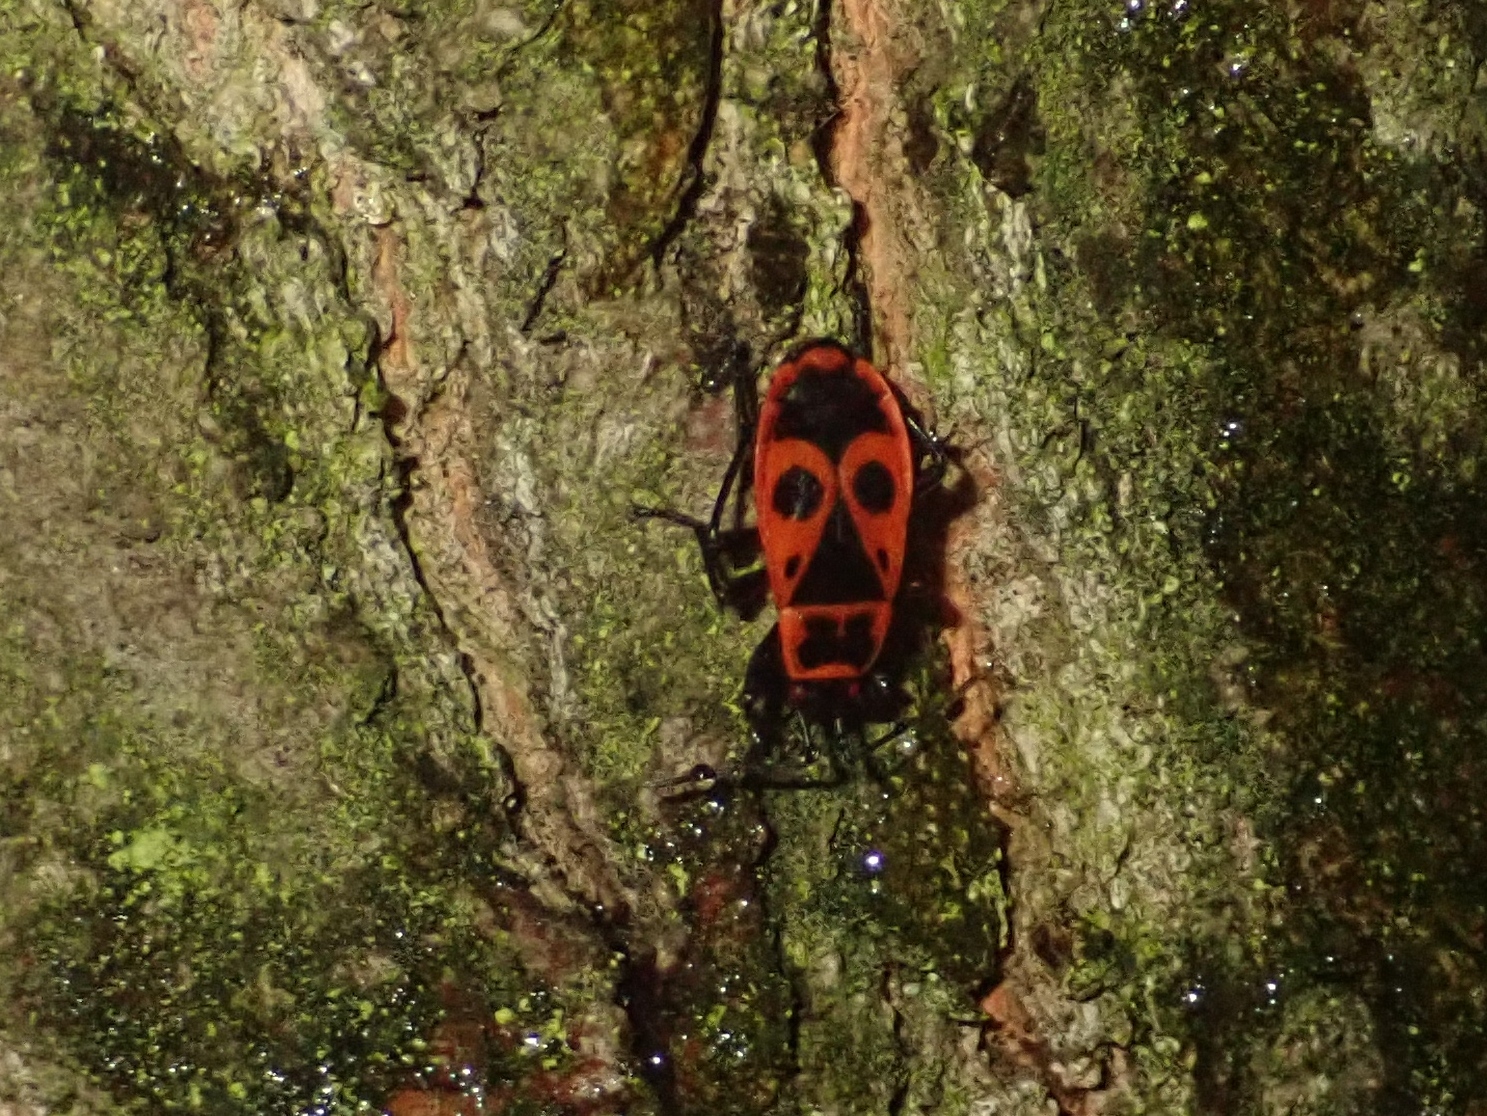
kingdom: Animalia
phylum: Arthropoda
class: Insecta
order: Hemiptera
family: Pyrrhocoridae
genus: Pyrrhocoris
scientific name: Pyrrhocoris apterus
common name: Firebug
